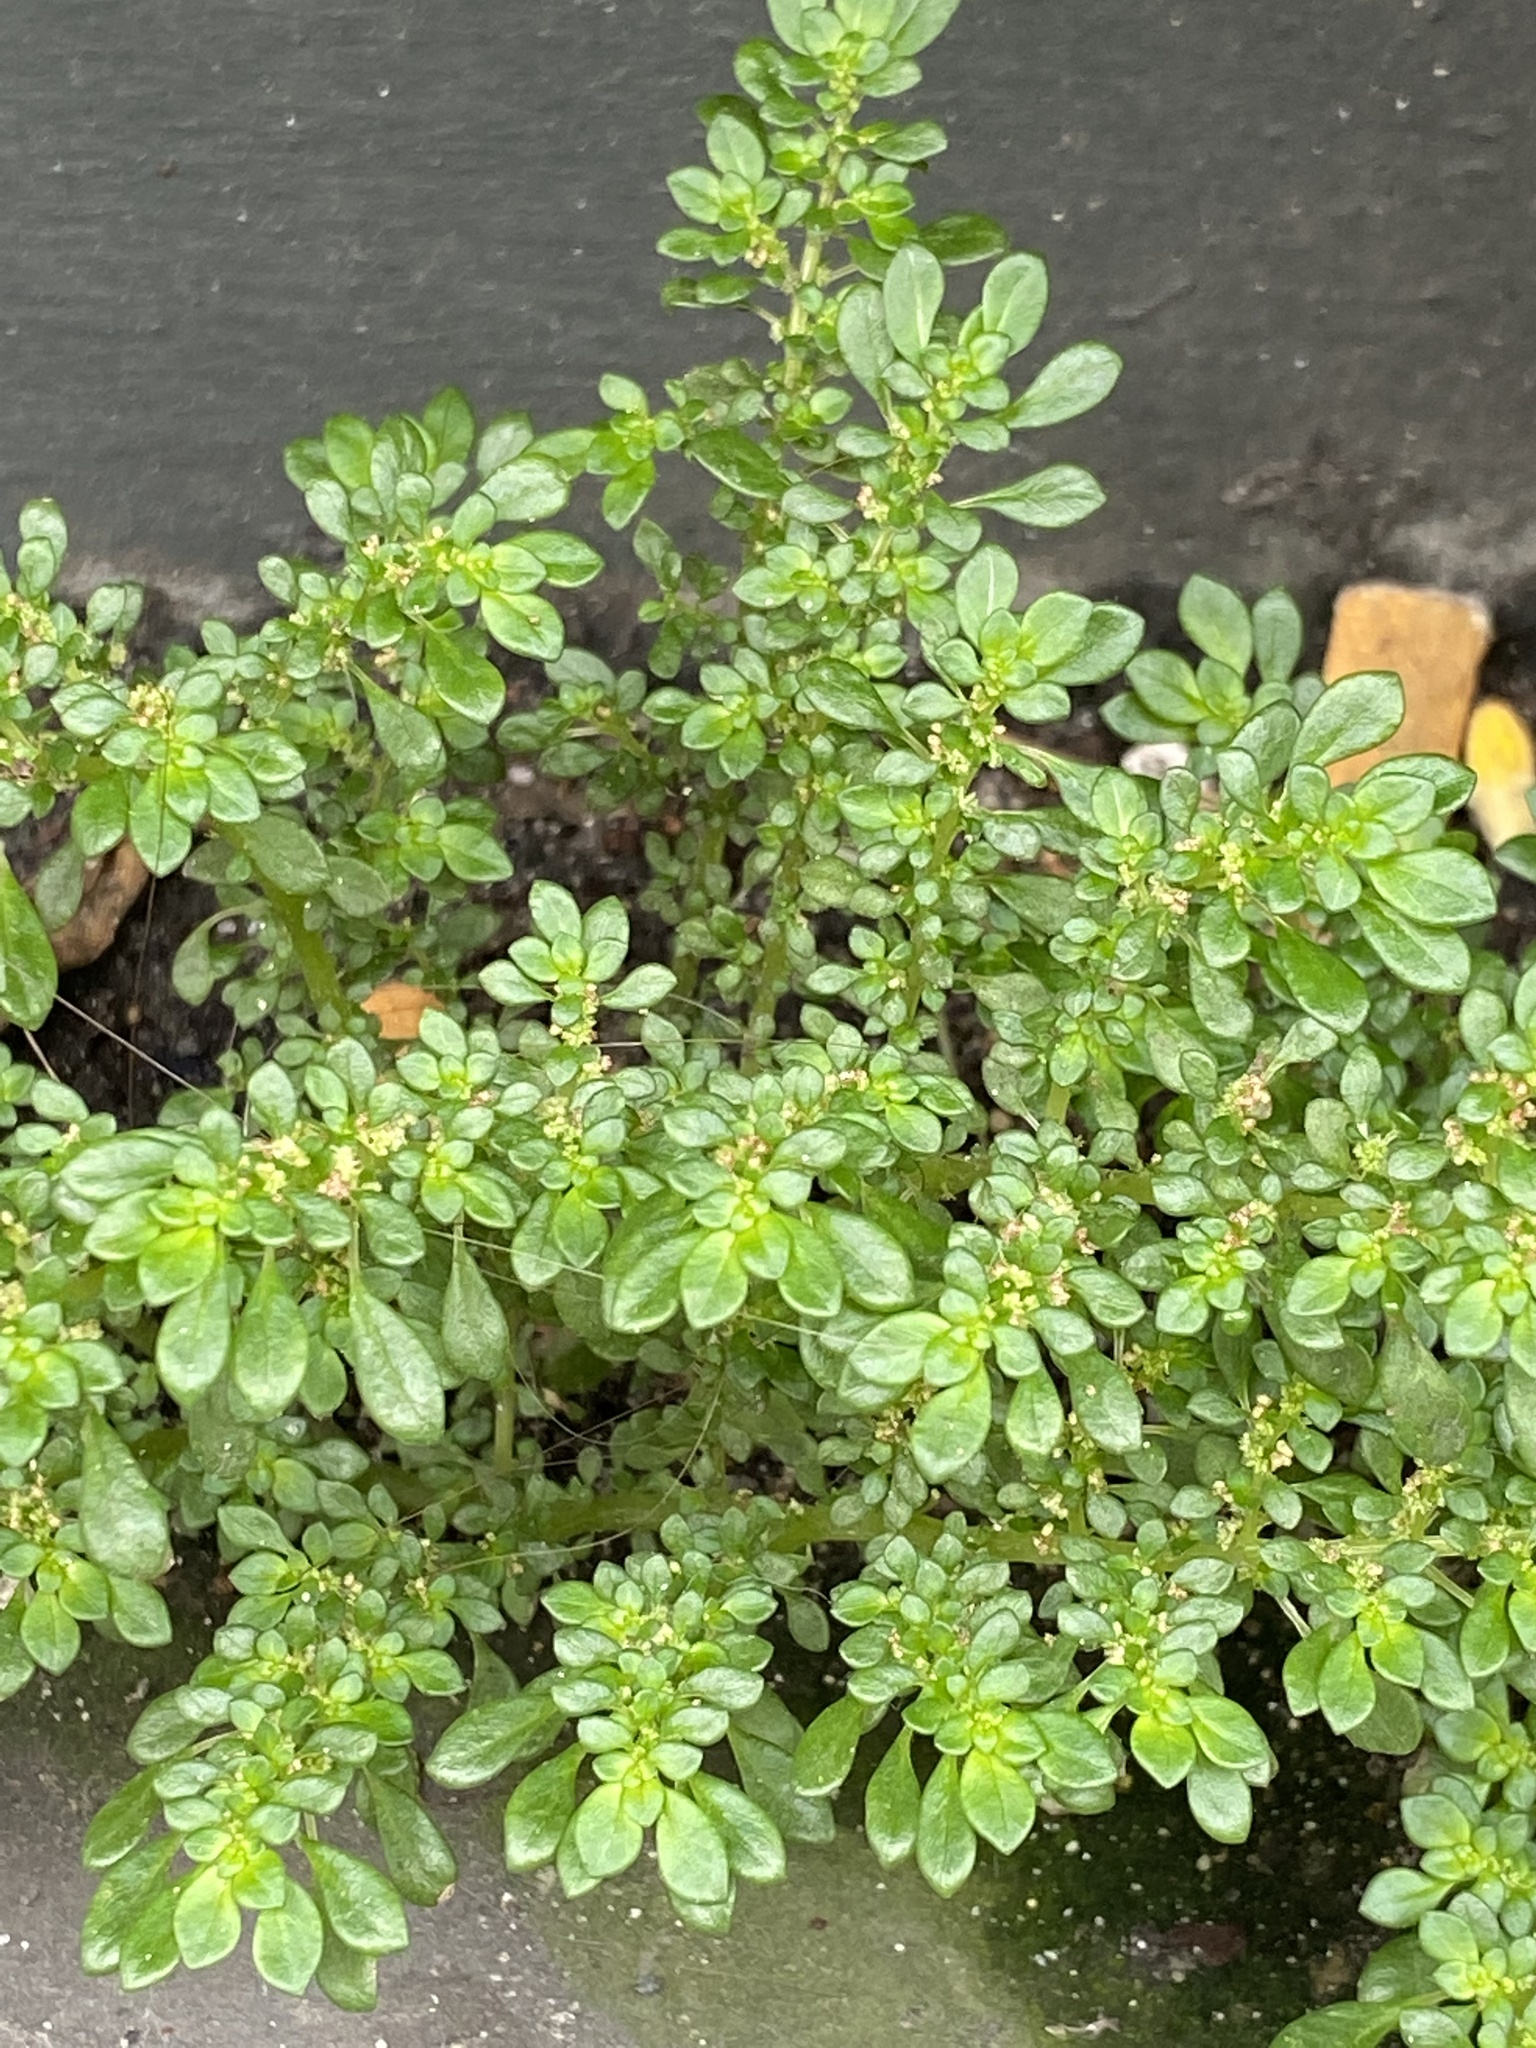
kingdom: Plantae
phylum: Tracheophyta
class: Magnoliopsida
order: Rosales
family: Urticaceae
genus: Pilea
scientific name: Pilea microphylla
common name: Artillery-plant
